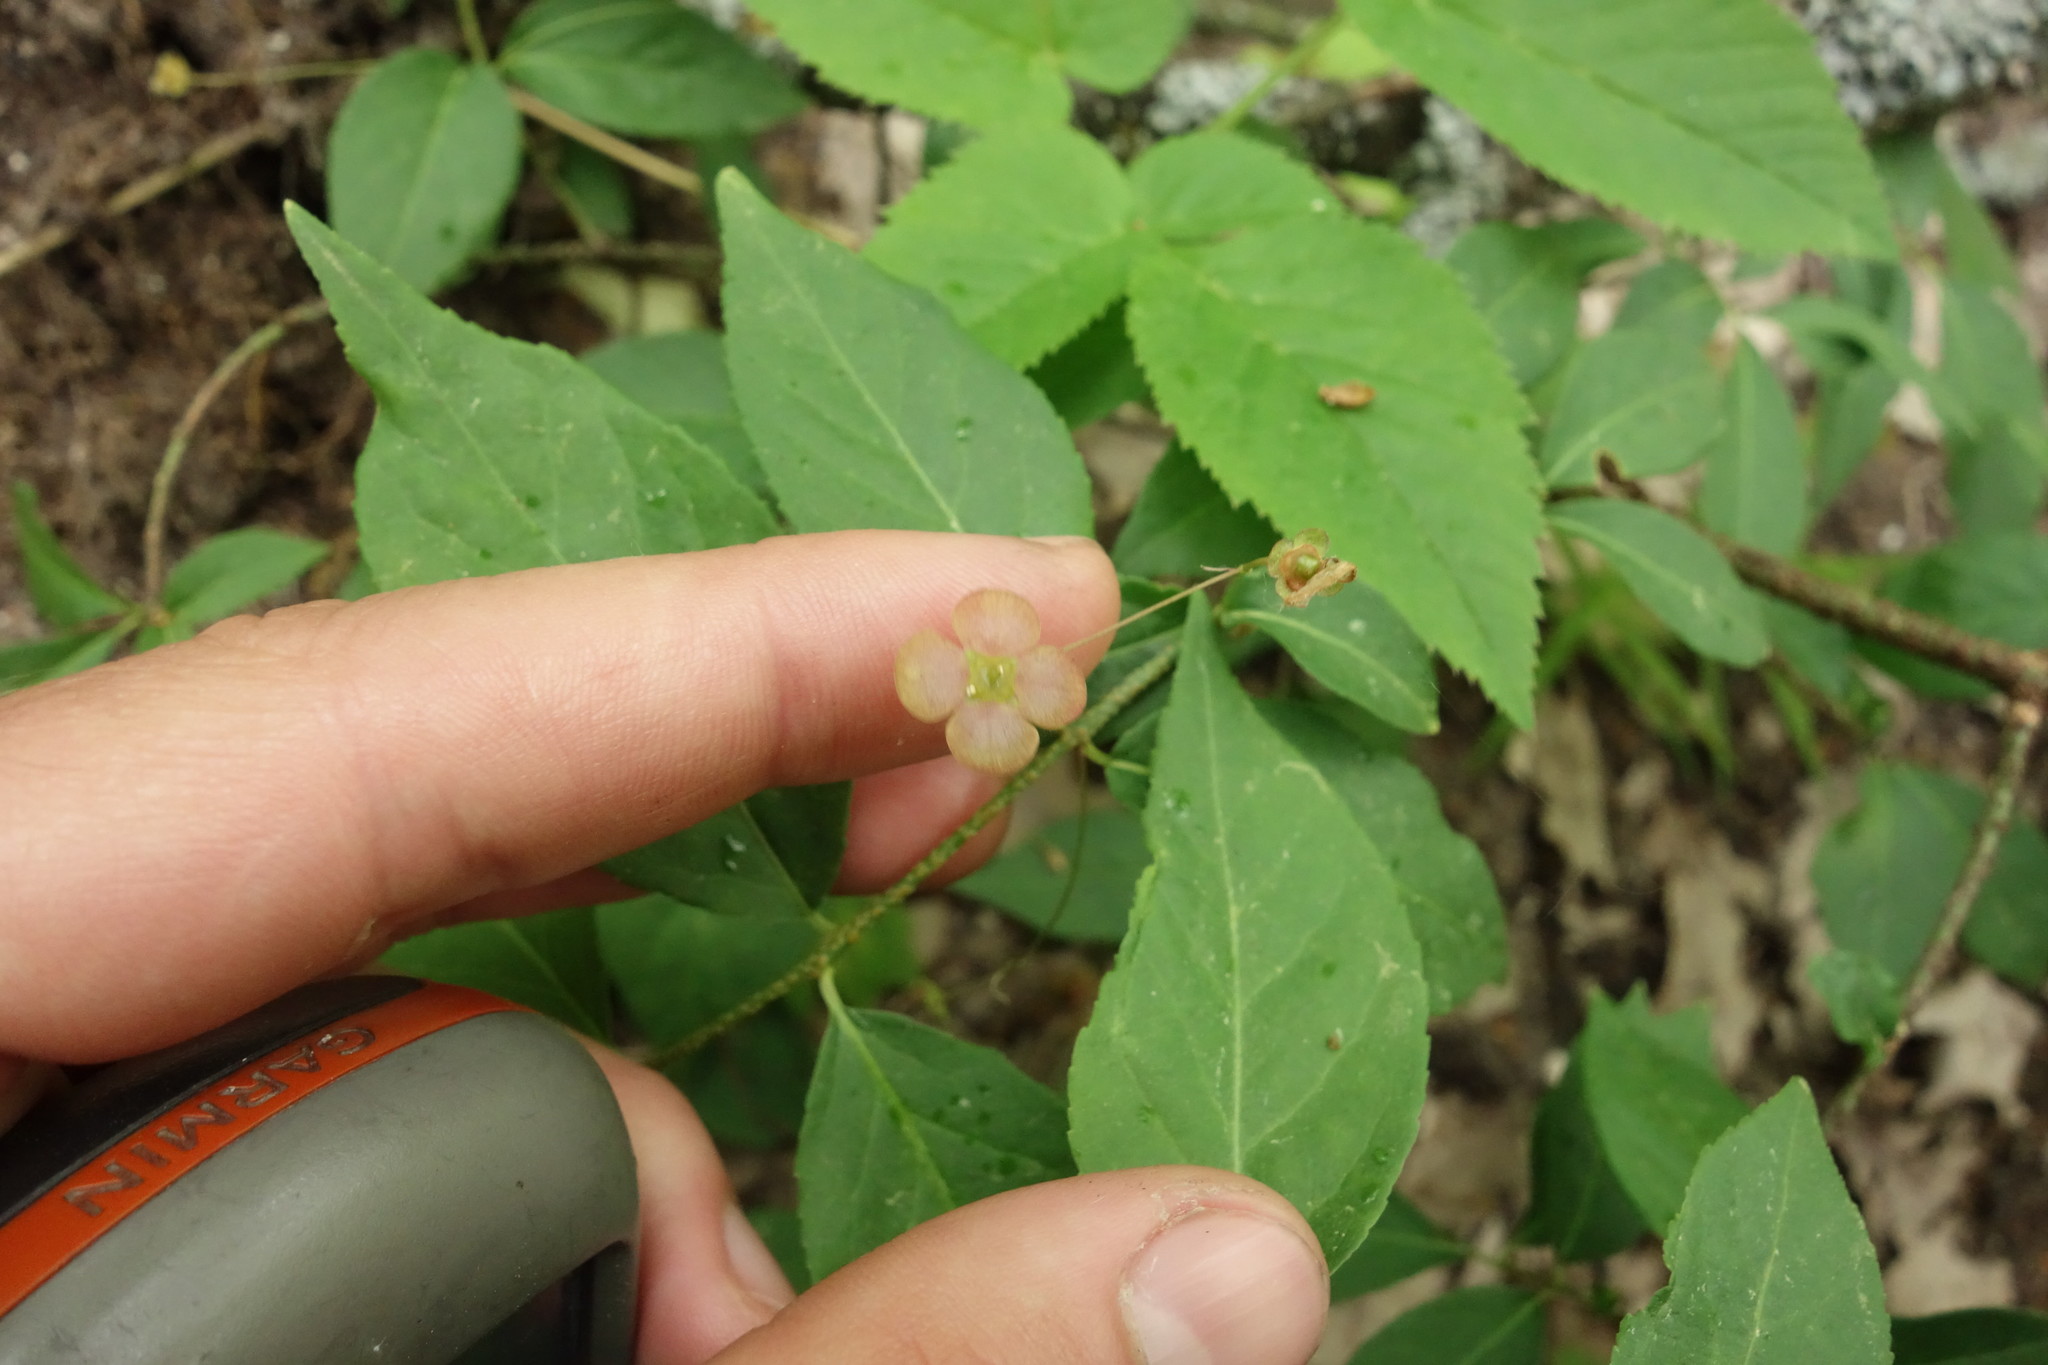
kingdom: Plantae
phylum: Tracheophyta
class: Magnoliopsida
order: Celastrales
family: Celastraceae
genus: Euonymus
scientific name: Euonymus verrucosus
